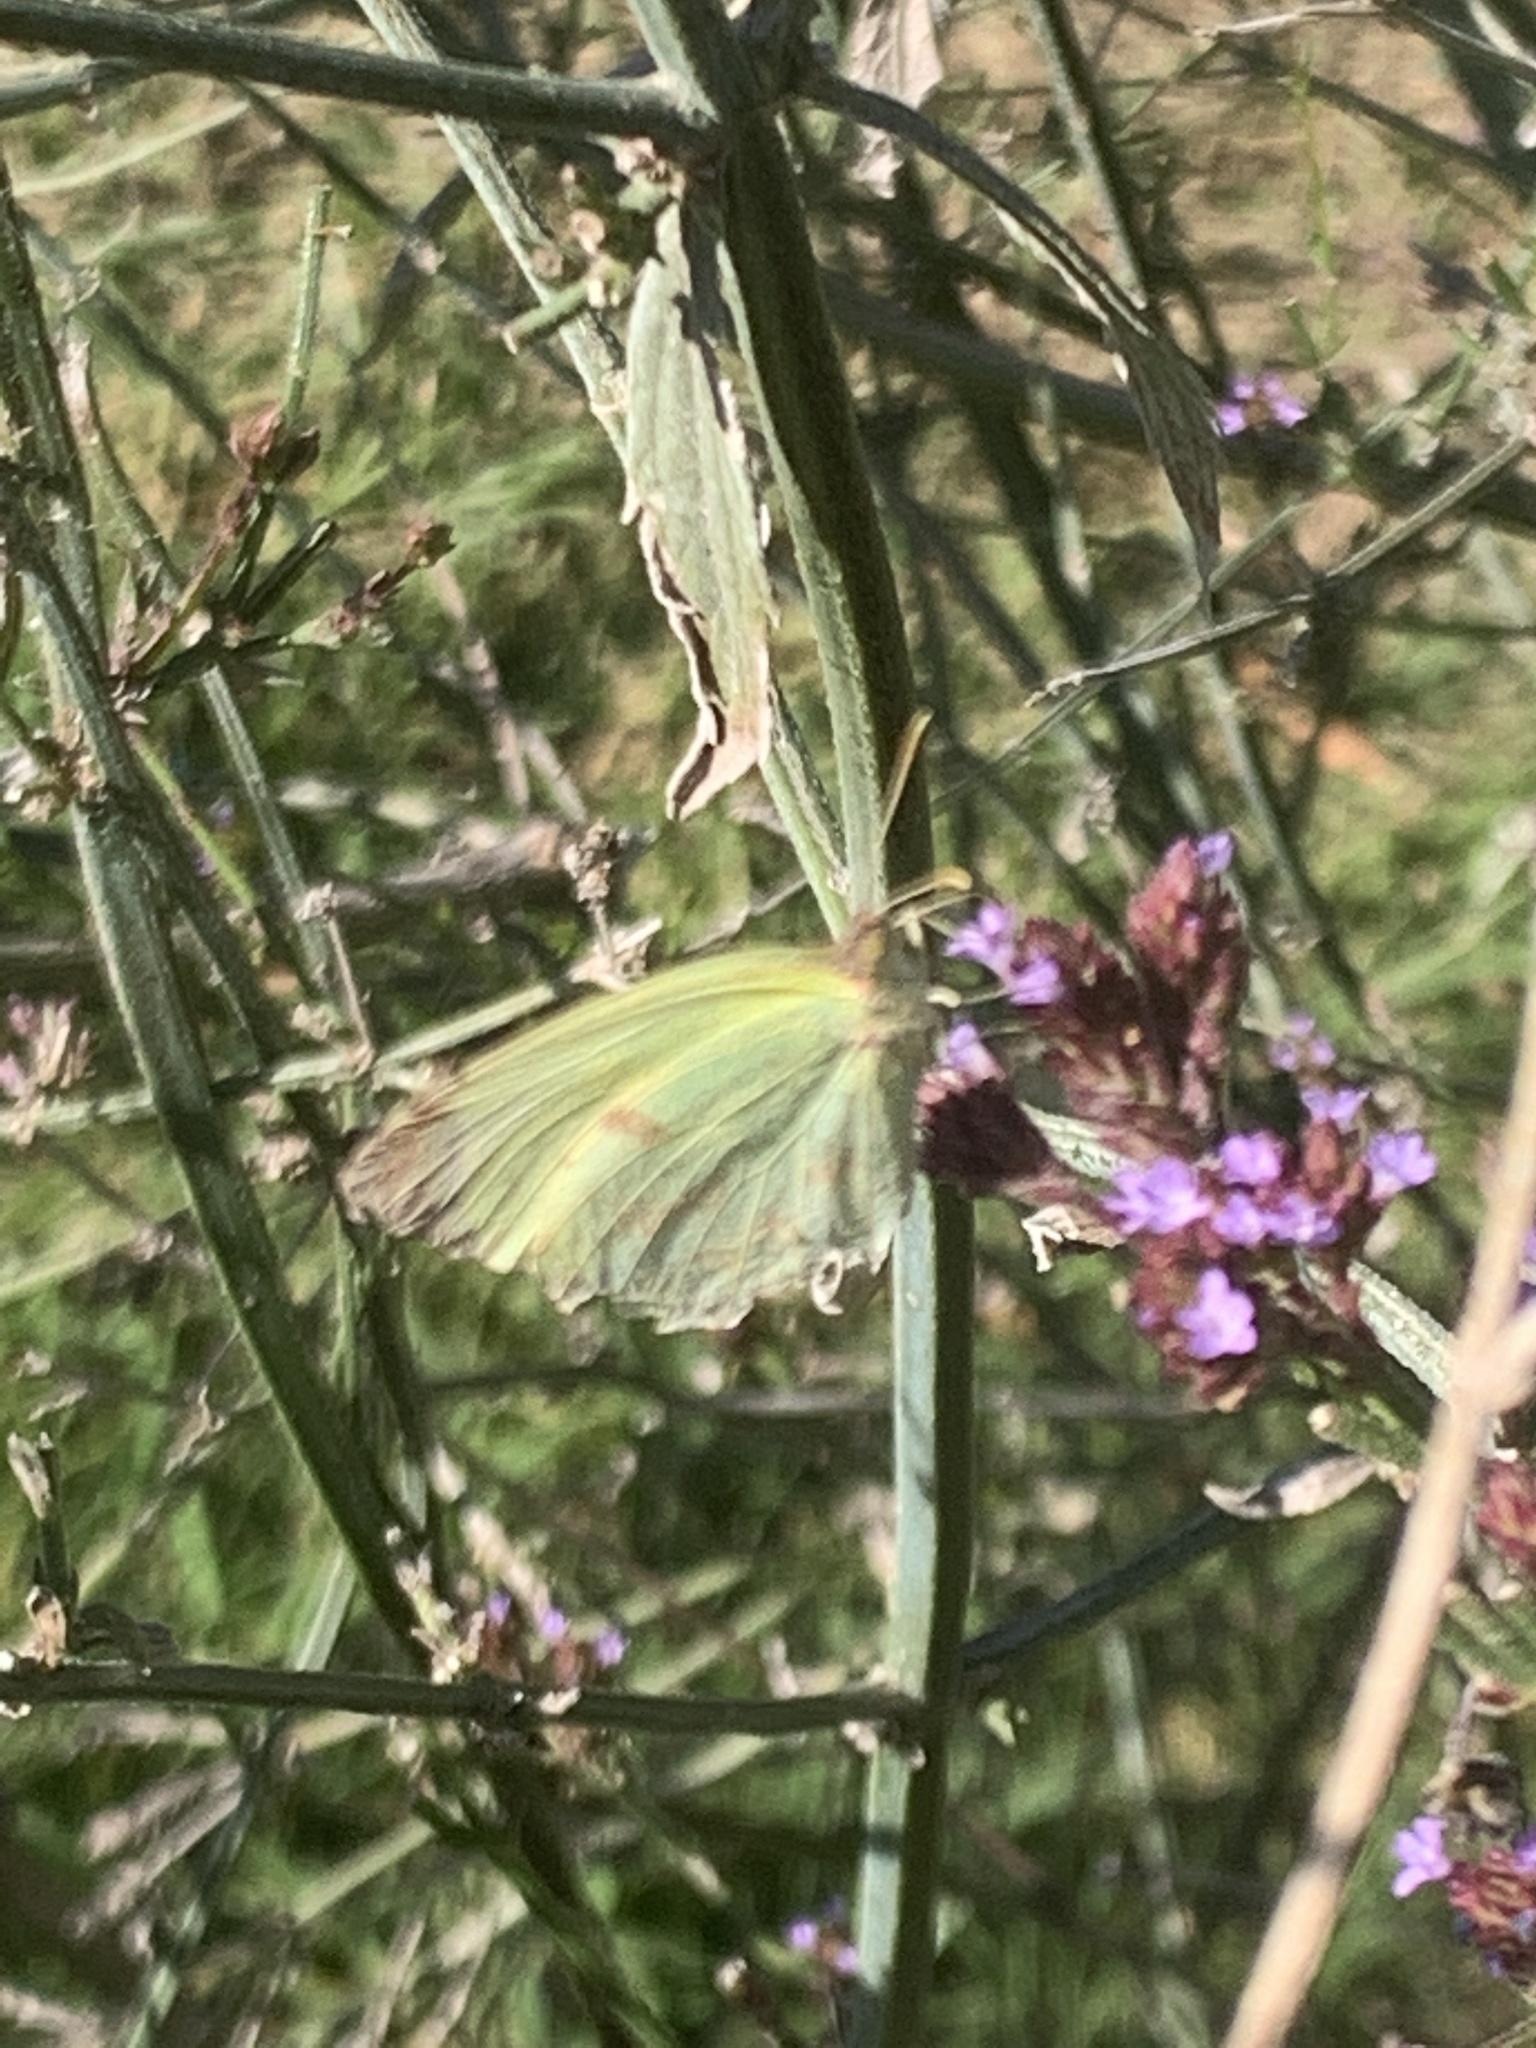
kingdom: Animalia
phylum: Arthropoda
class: Insecta
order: Lepidoptera
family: Pieridae
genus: Teriocolias
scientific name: Teriocolias
